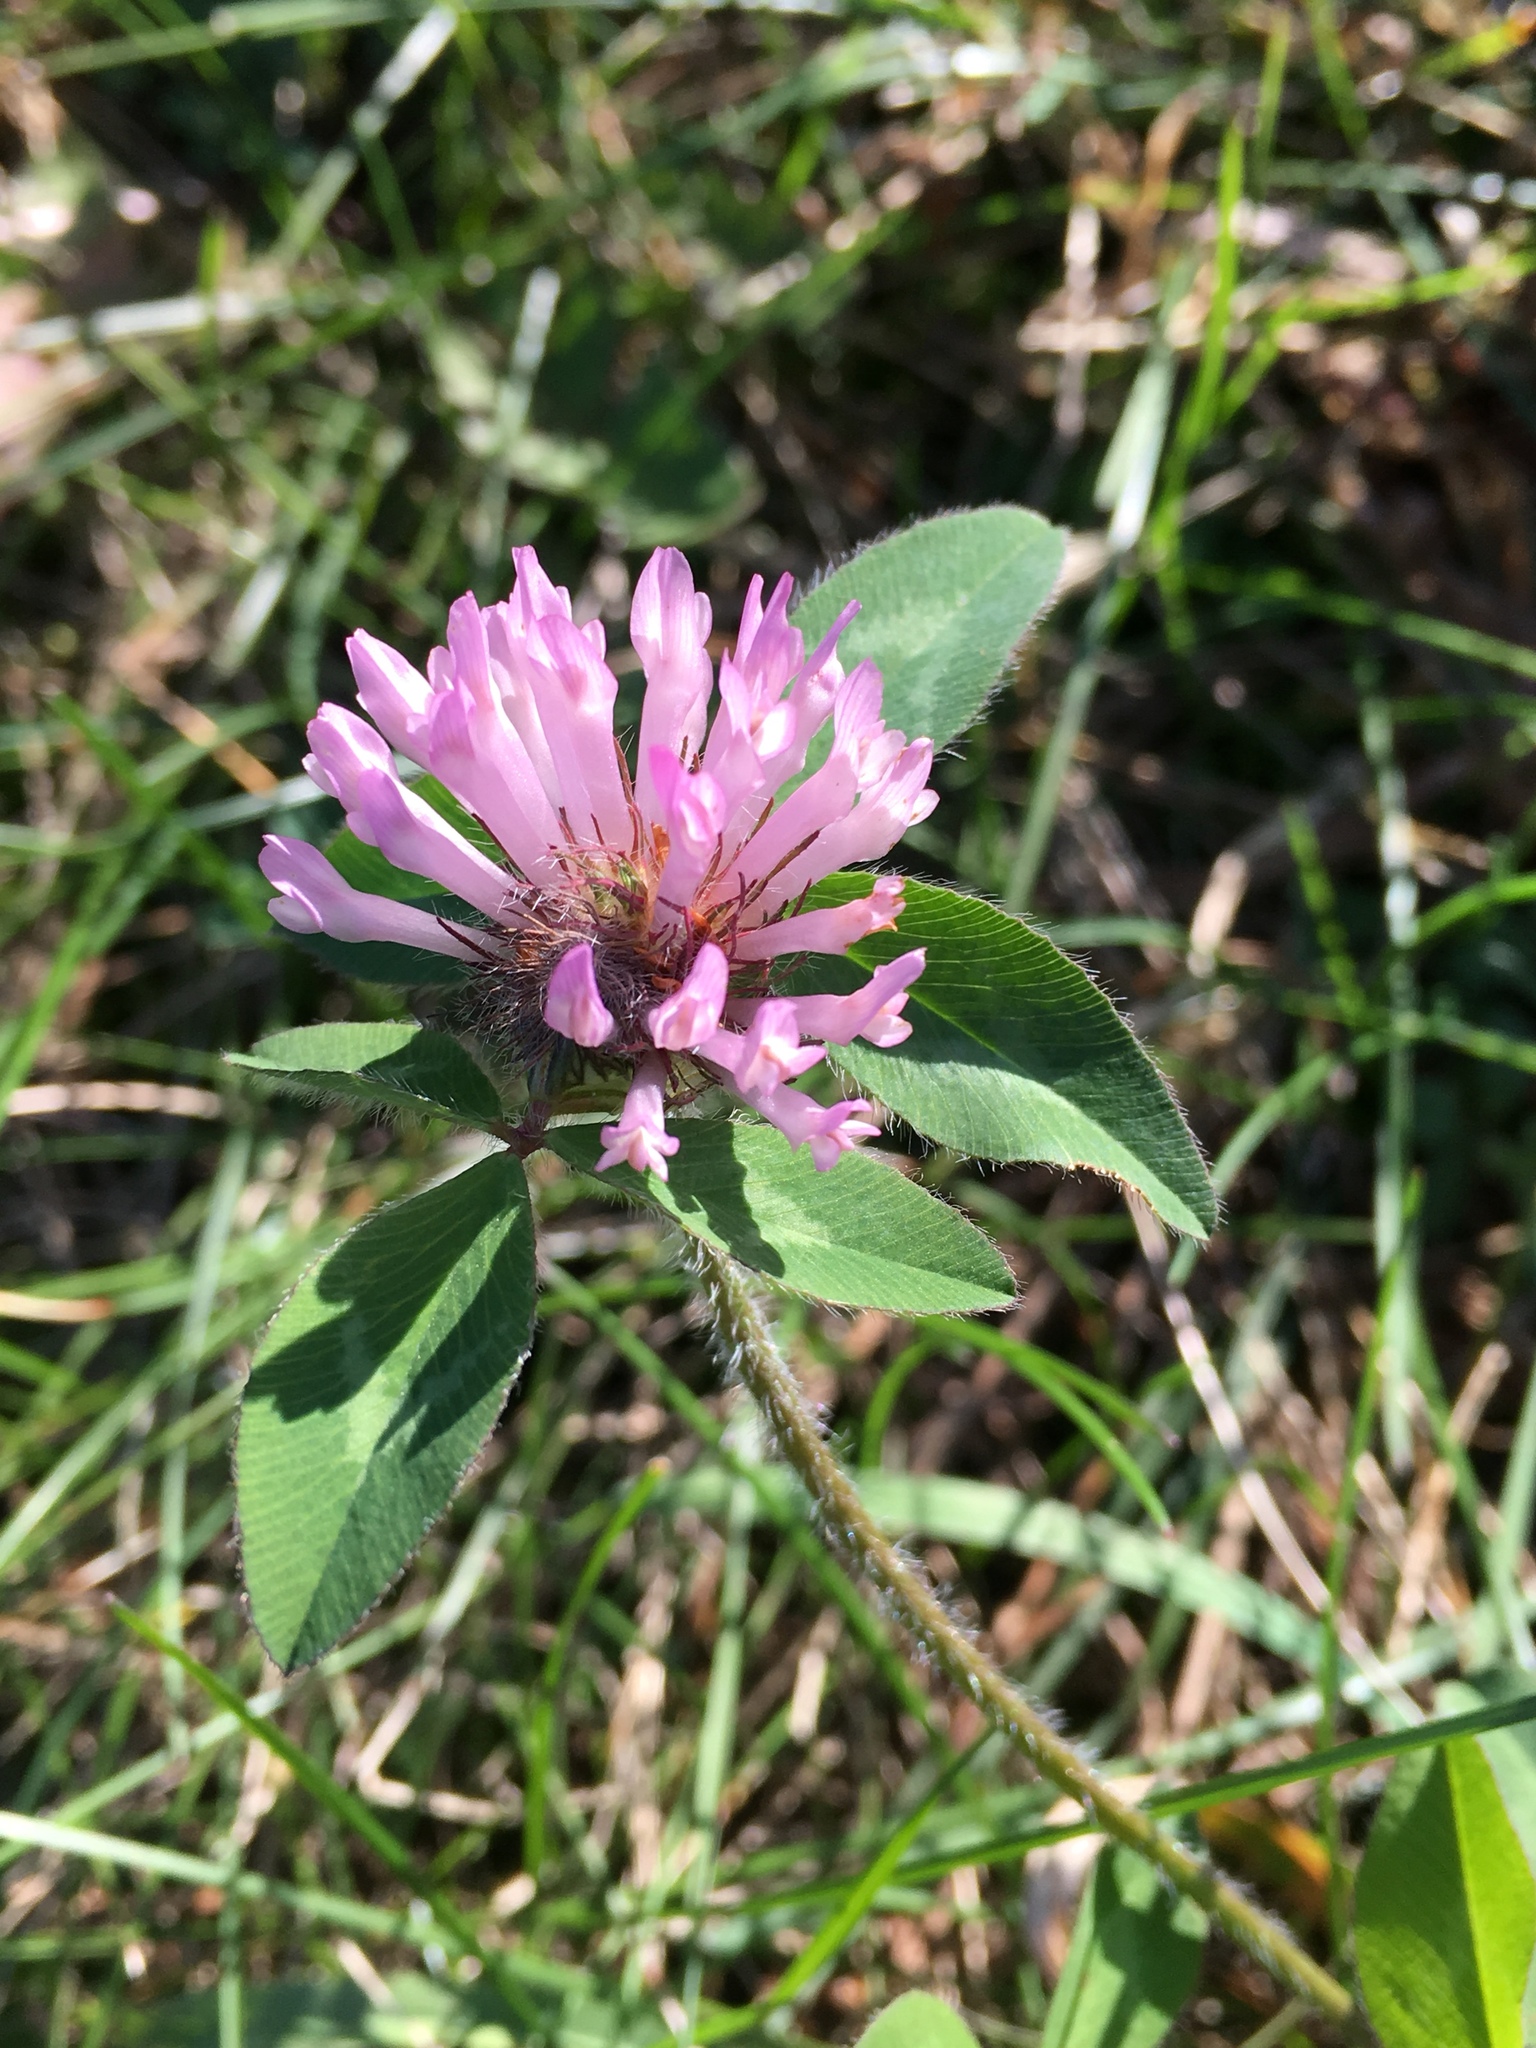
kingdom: Plantae
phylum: Tracheophyta
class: Magnoliopsida
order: Fabales
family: Fabaceae
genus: Trifolium
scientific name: Trifolium pratense
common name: Red clover
